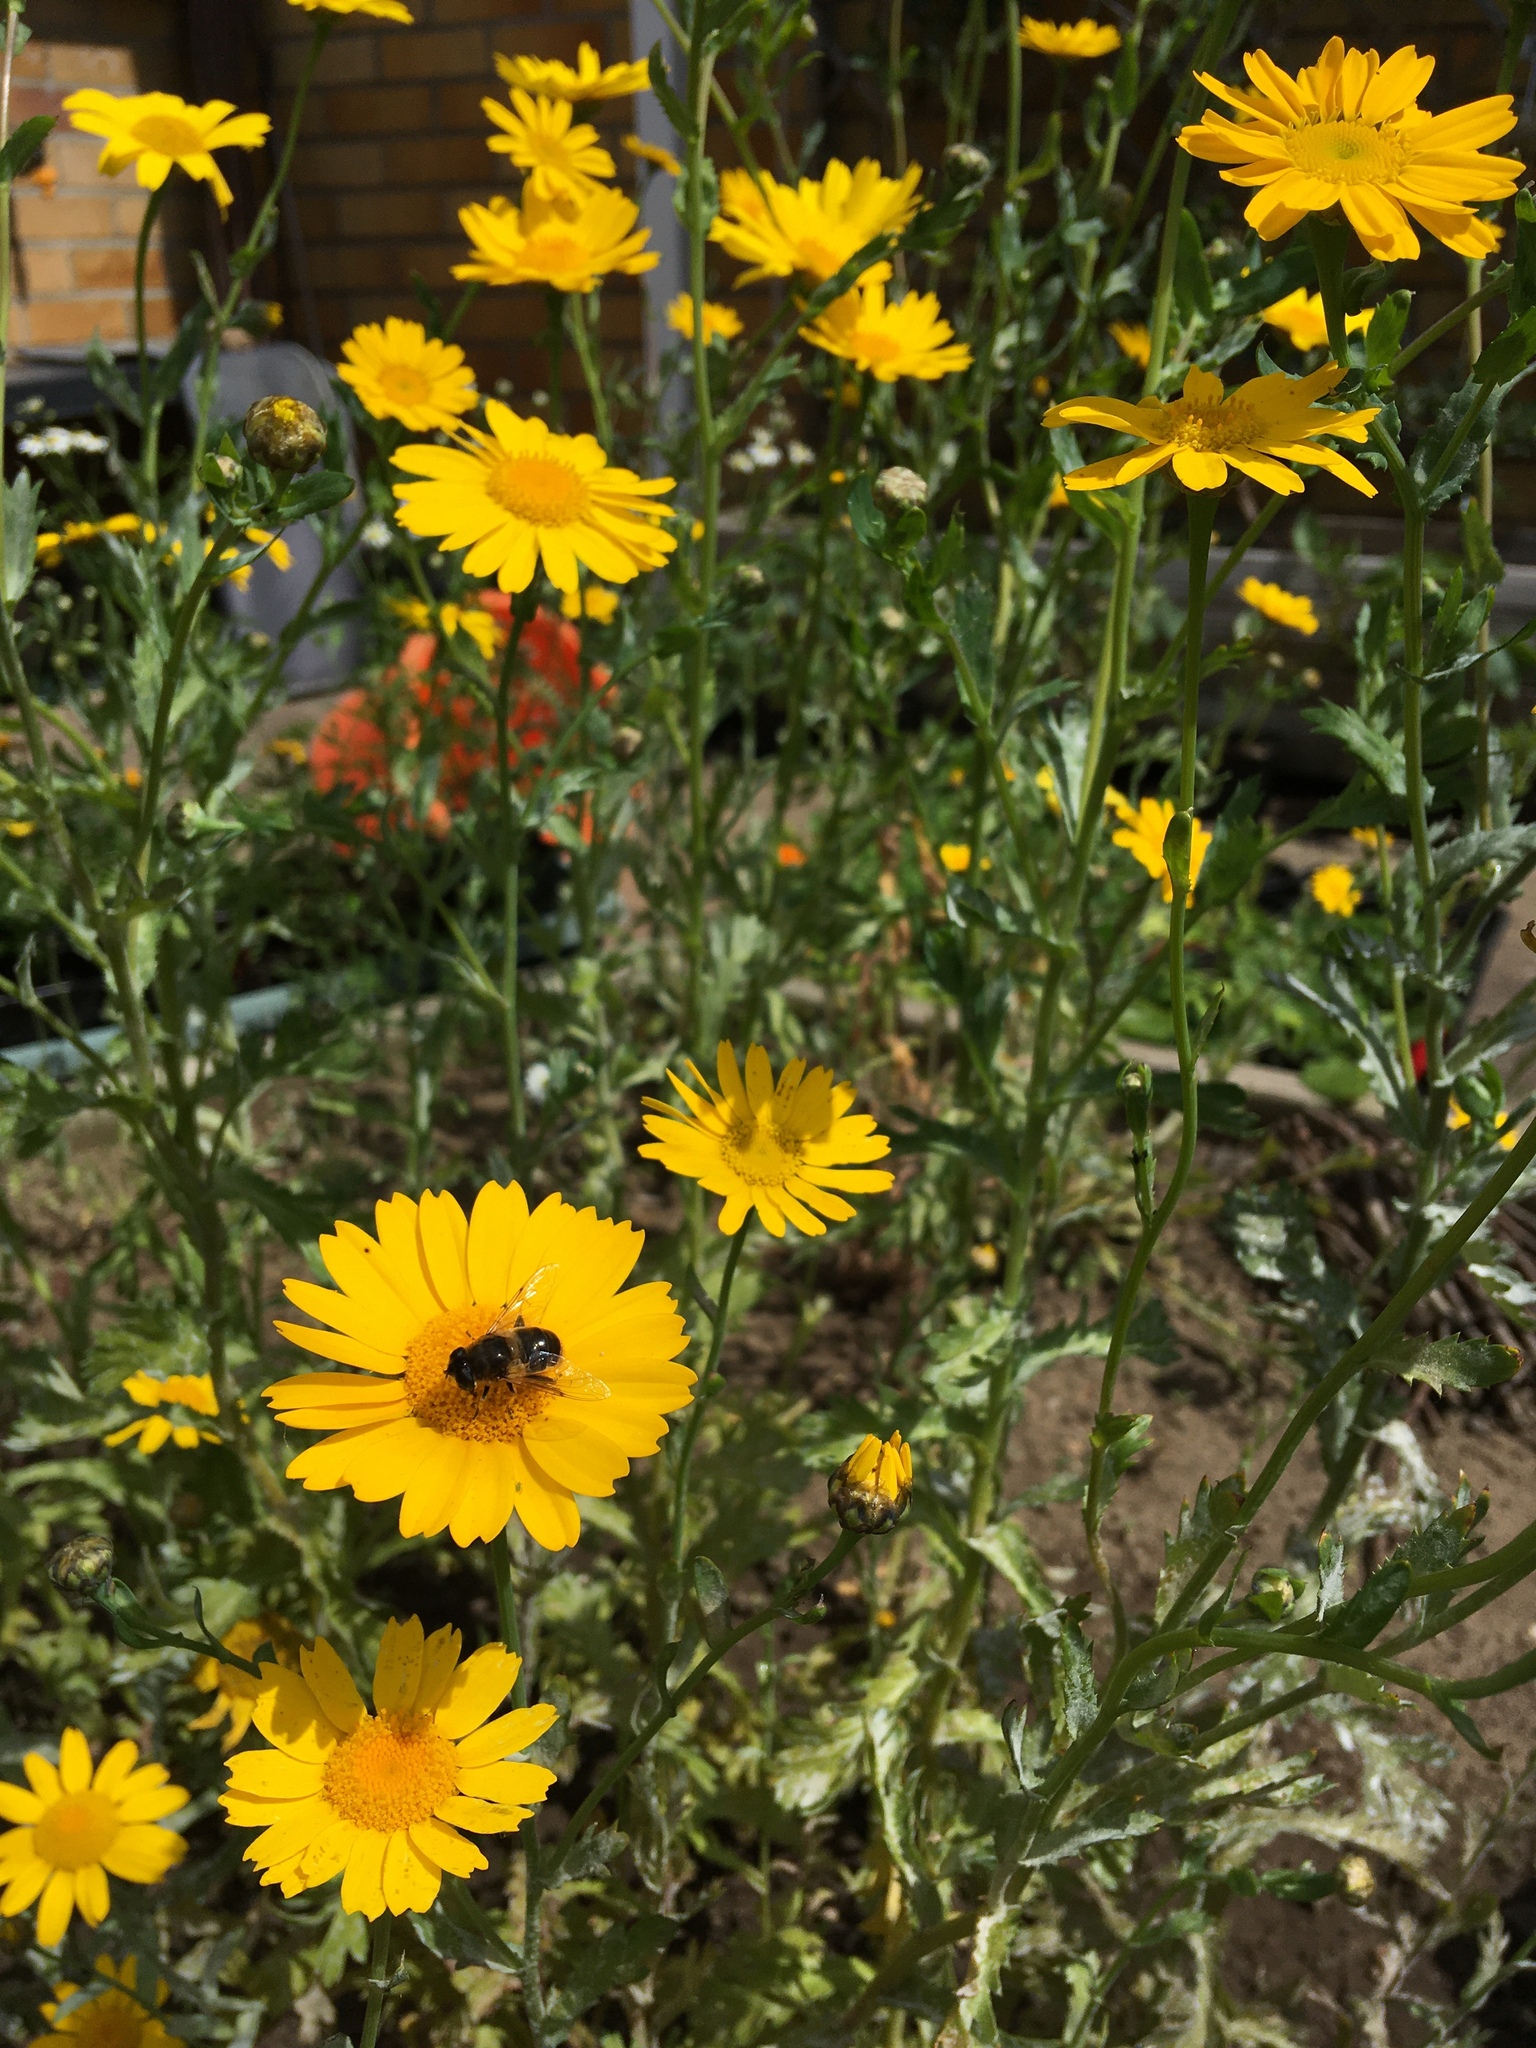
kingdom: Animalia
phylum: Arthropoda
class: Insecta
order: Diptera
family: Syrphidae
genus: Eristalis
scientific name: Eristalis tenax
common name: Drone fly
